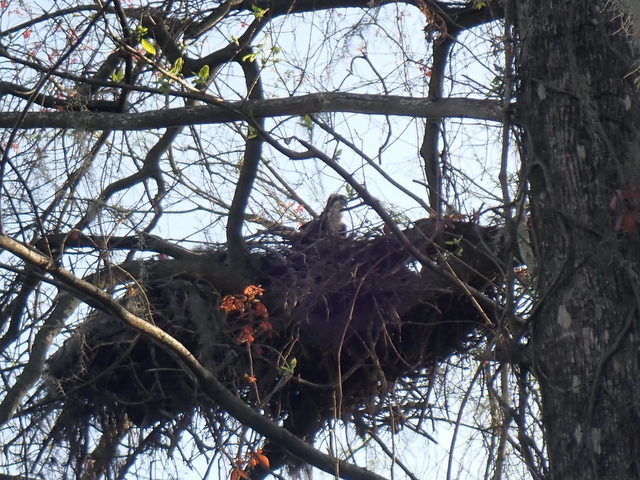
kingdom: Animalia
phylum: Chordata
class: Aves
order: Accipitriformes
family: Pandionidae
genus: Pandion
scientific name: Pandion haliaetus
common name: Osprey
